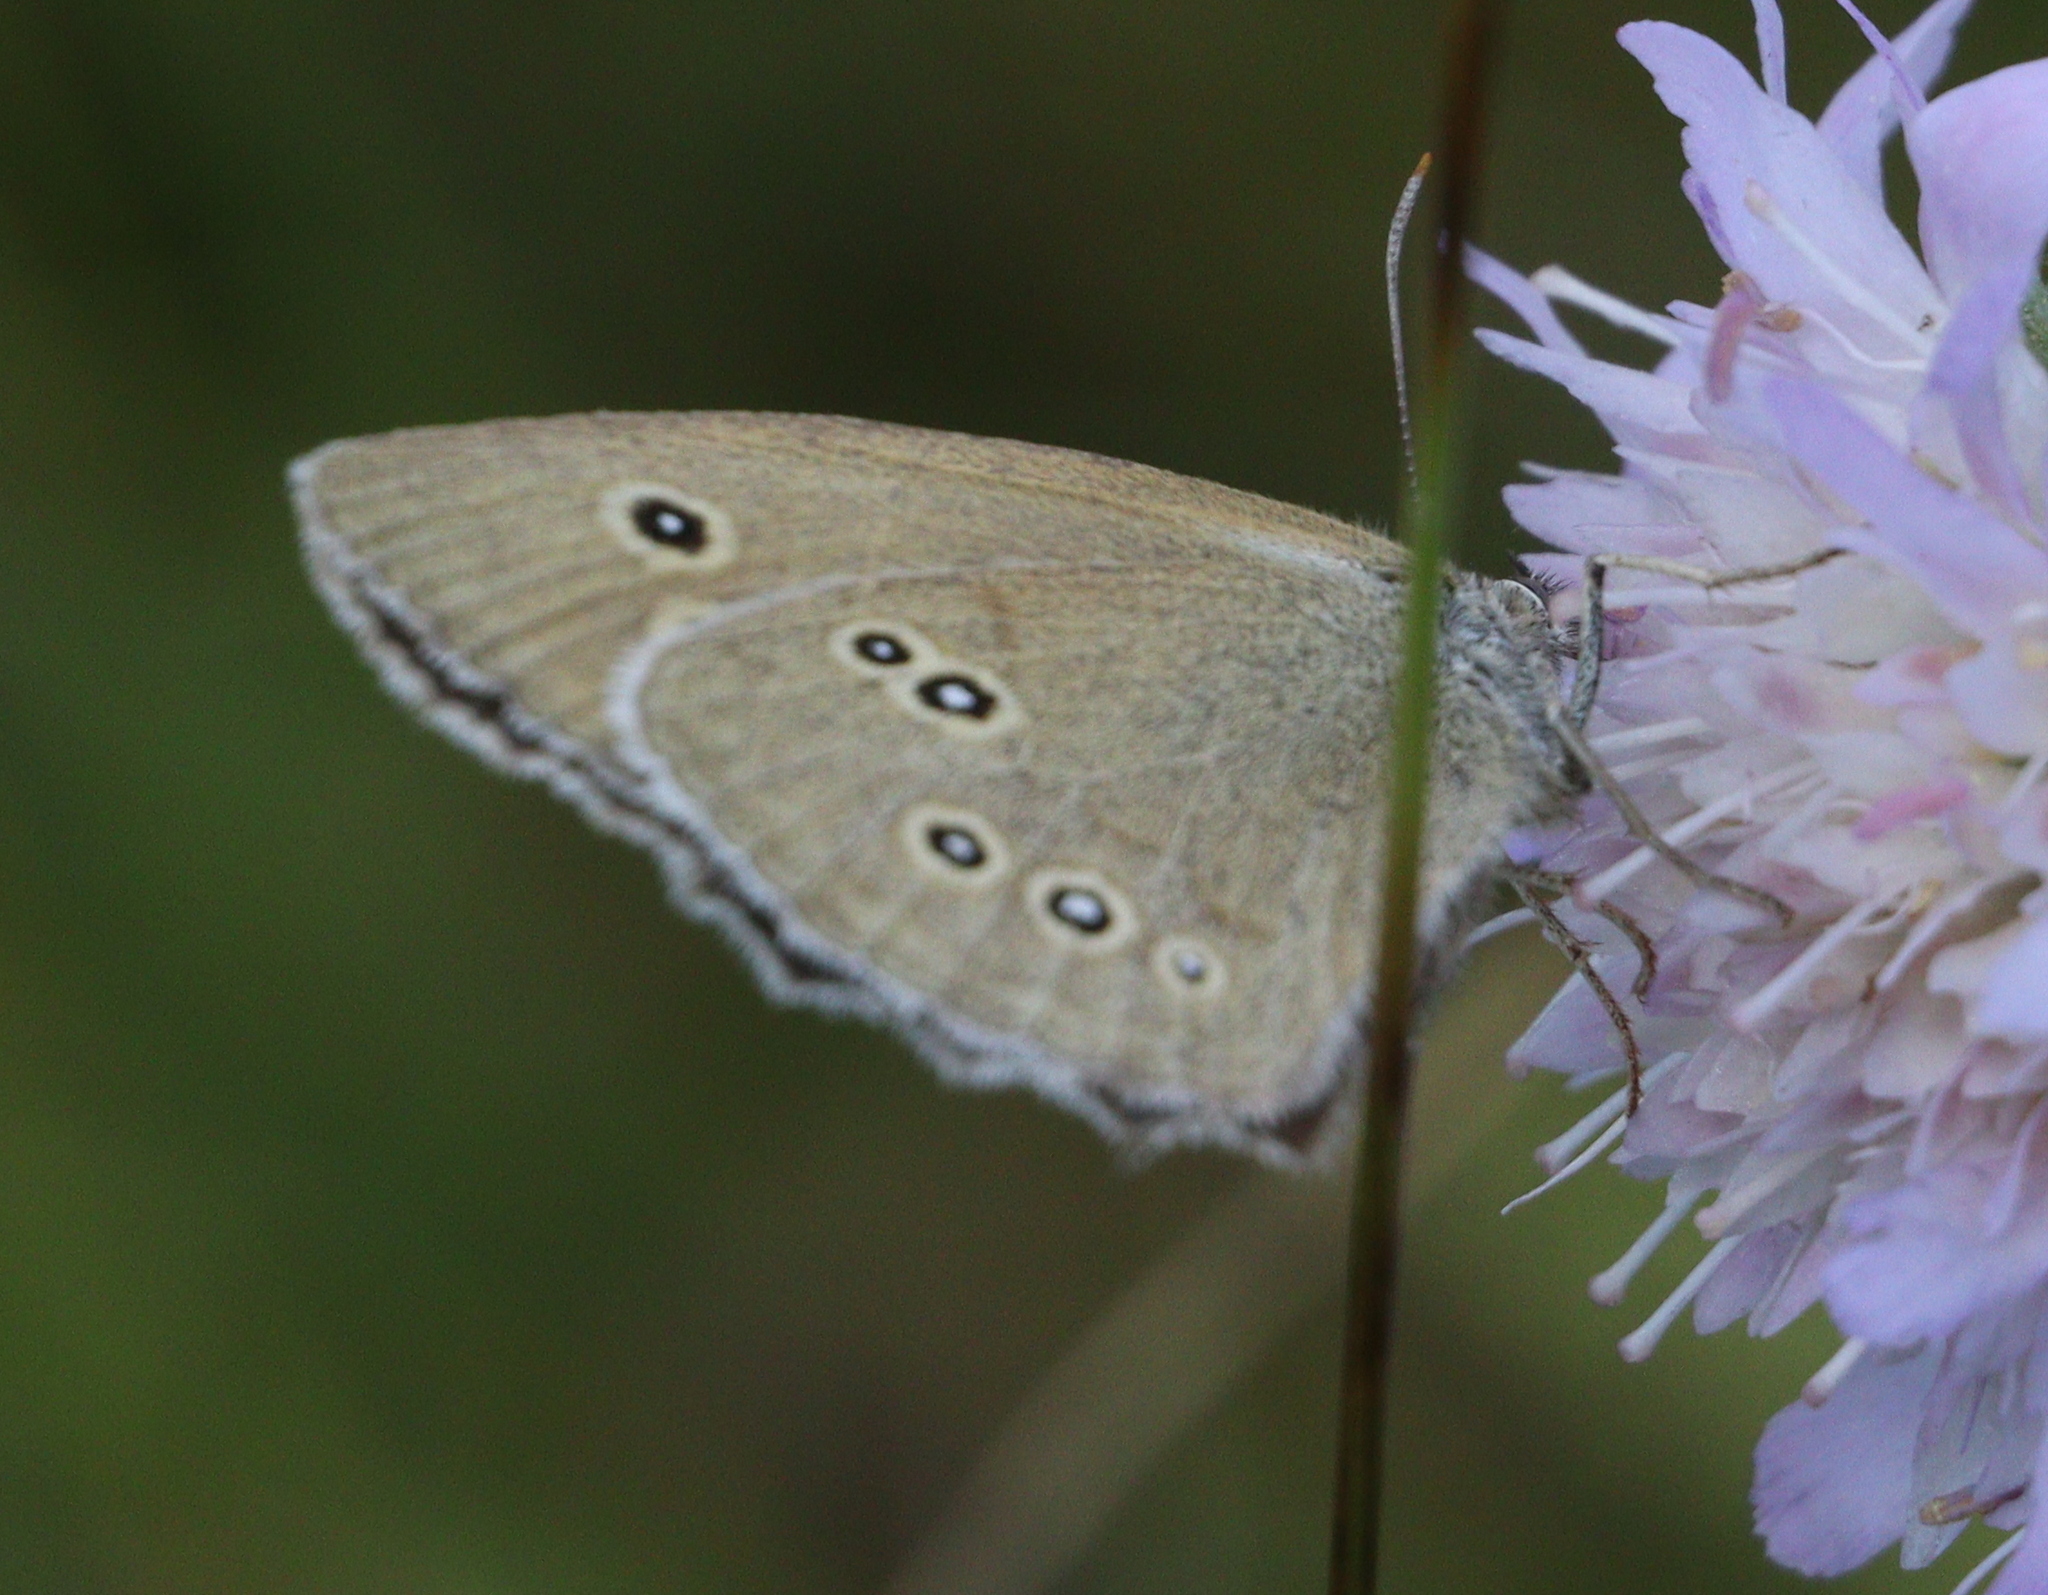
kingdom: Animalia
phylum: Arthropoda
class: Insecta
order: Lepidoptera
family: Nymphalidae
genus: Aphantopus
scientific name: Aphantopus hyperantus
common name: Ringlet
